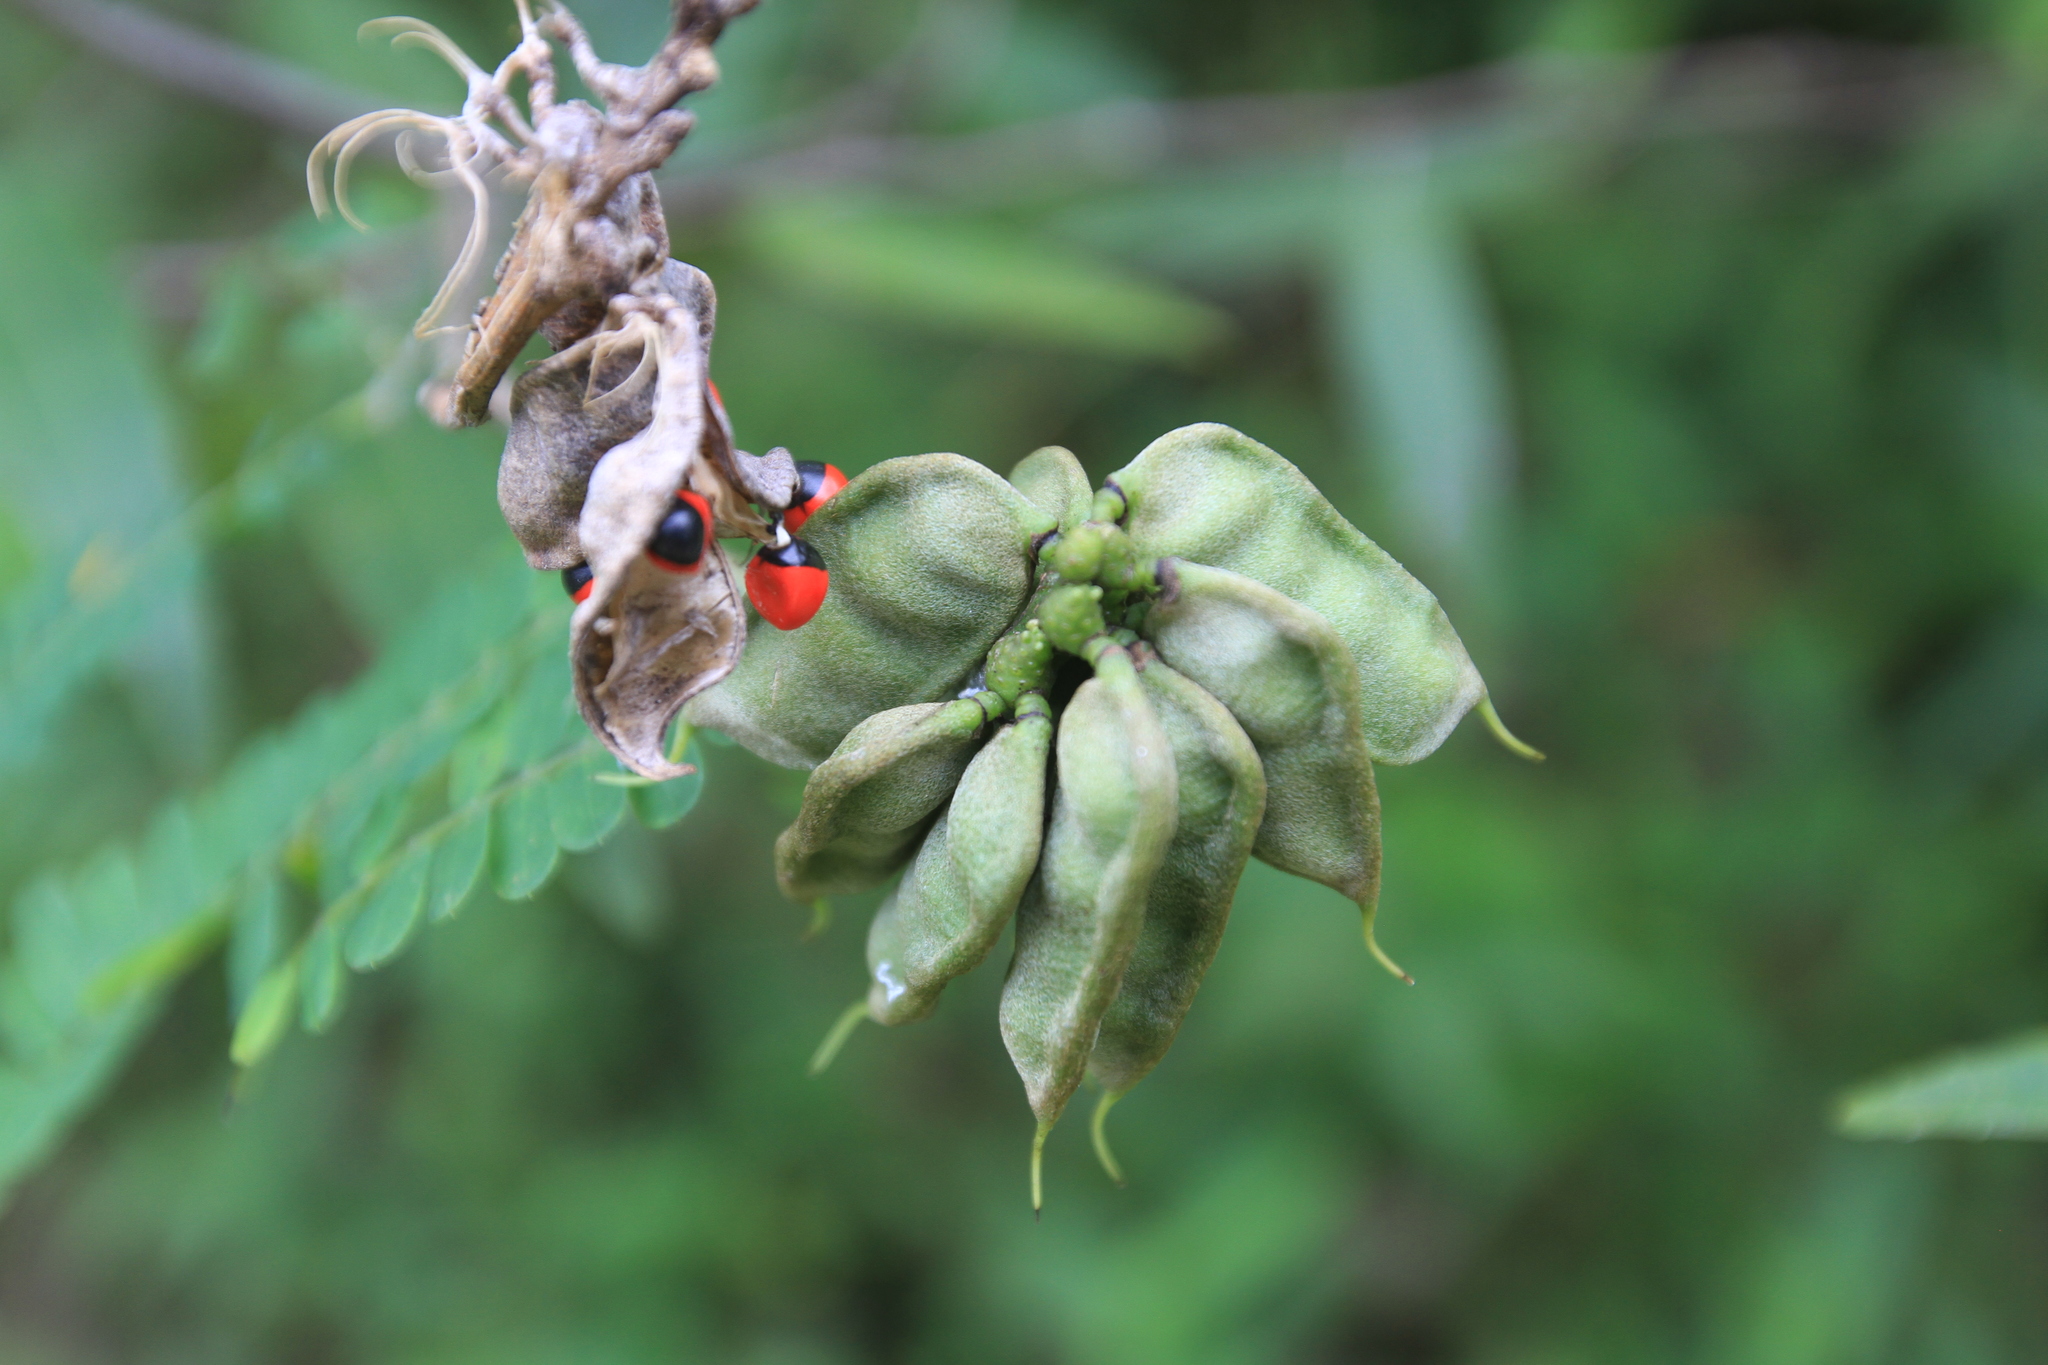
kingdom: Plantae
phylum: Tracheophyta
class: Magnoliopsida
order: Fabales
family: Fabaceae
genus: Abrus
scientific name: Abrus precatorius
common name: Rosarypea
